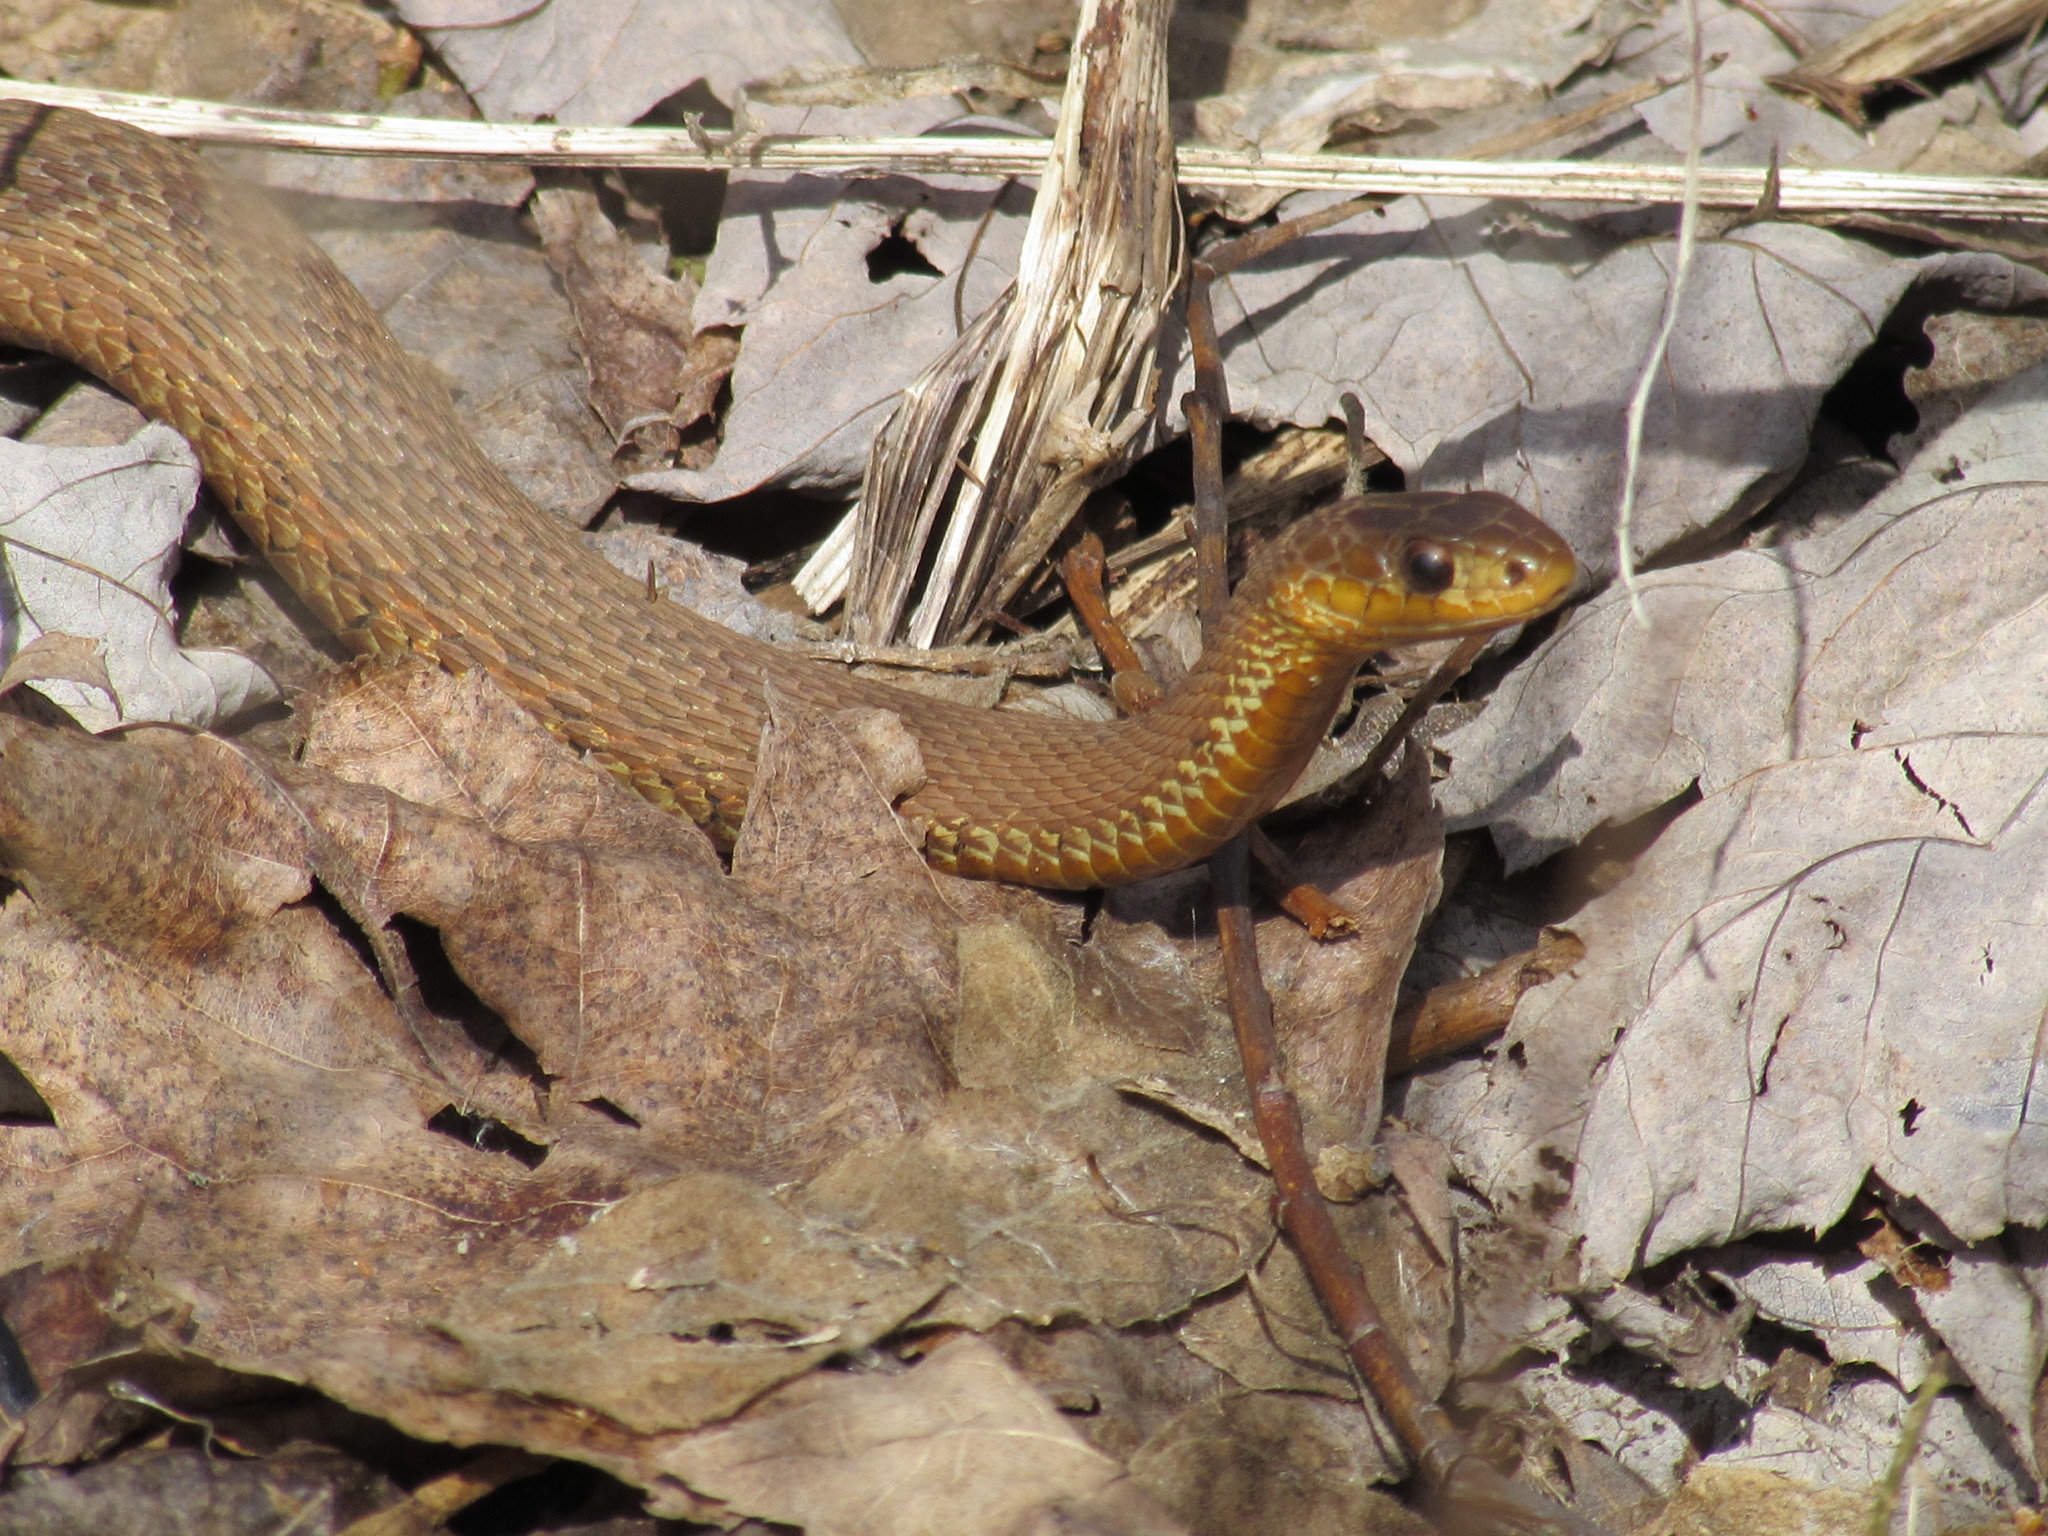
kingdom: Animalia
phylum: Chordata
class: Squamata
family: Colubridae
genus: Thamnophis
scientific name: Thamnophis sirtalis
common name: Common garter snake
